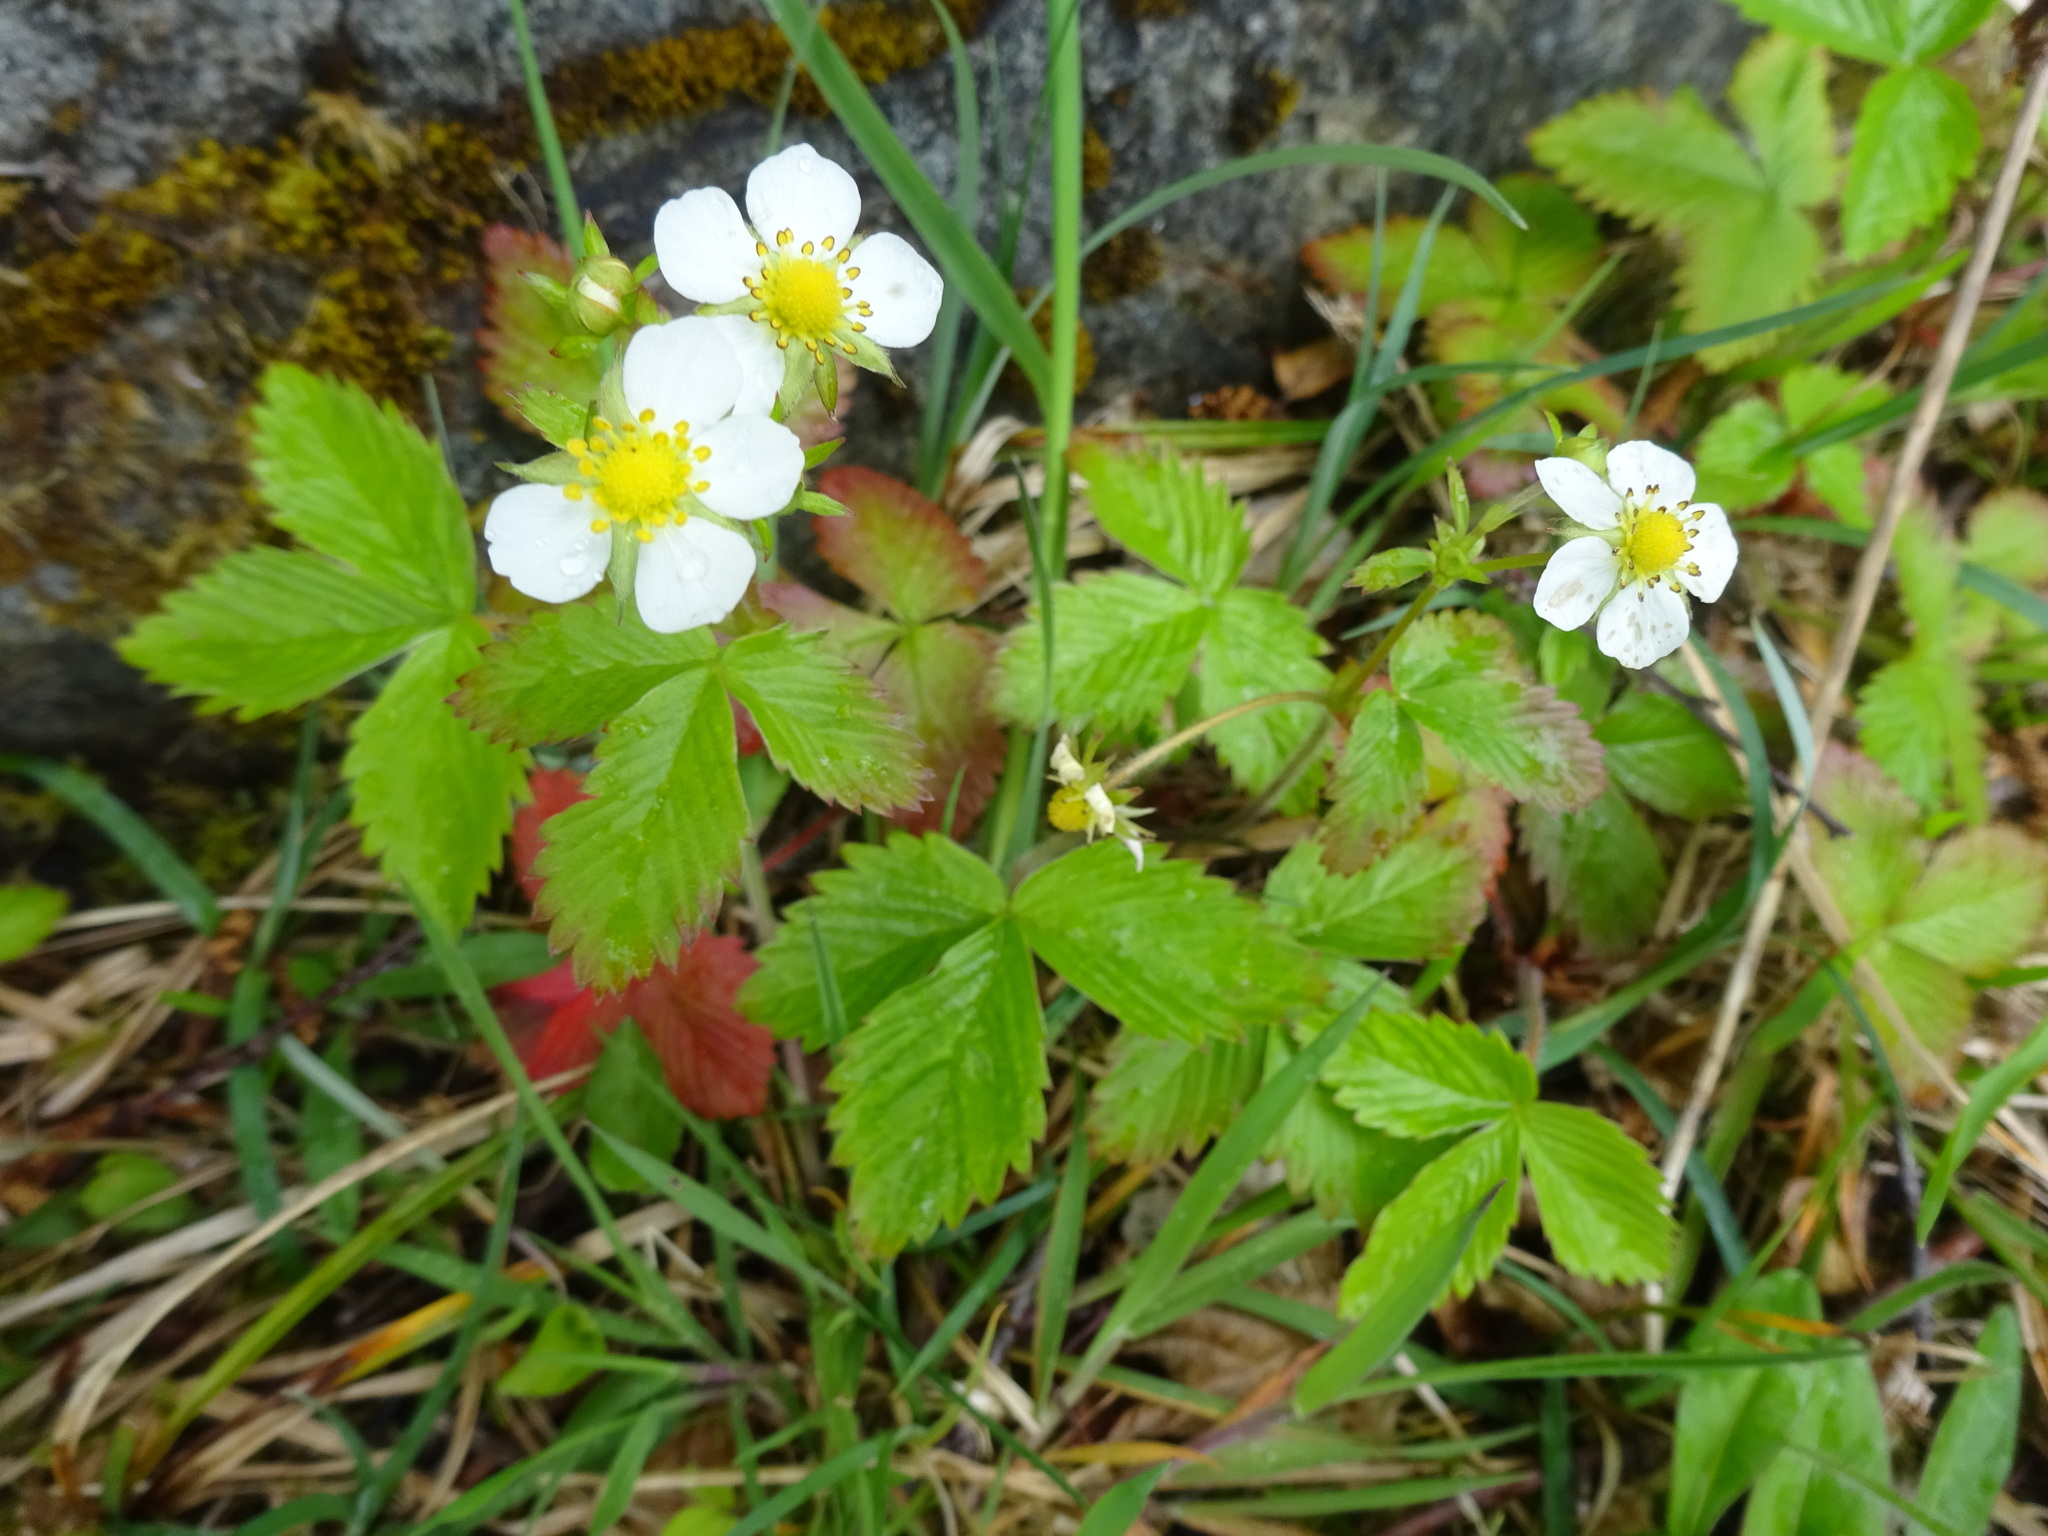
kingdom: Plantae
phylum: Tracheophyta
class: Magnoliopsida
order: Rosales
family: Rosaceae
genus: Fragaria
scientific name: Fragaria vesca
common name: Wild strawberry
